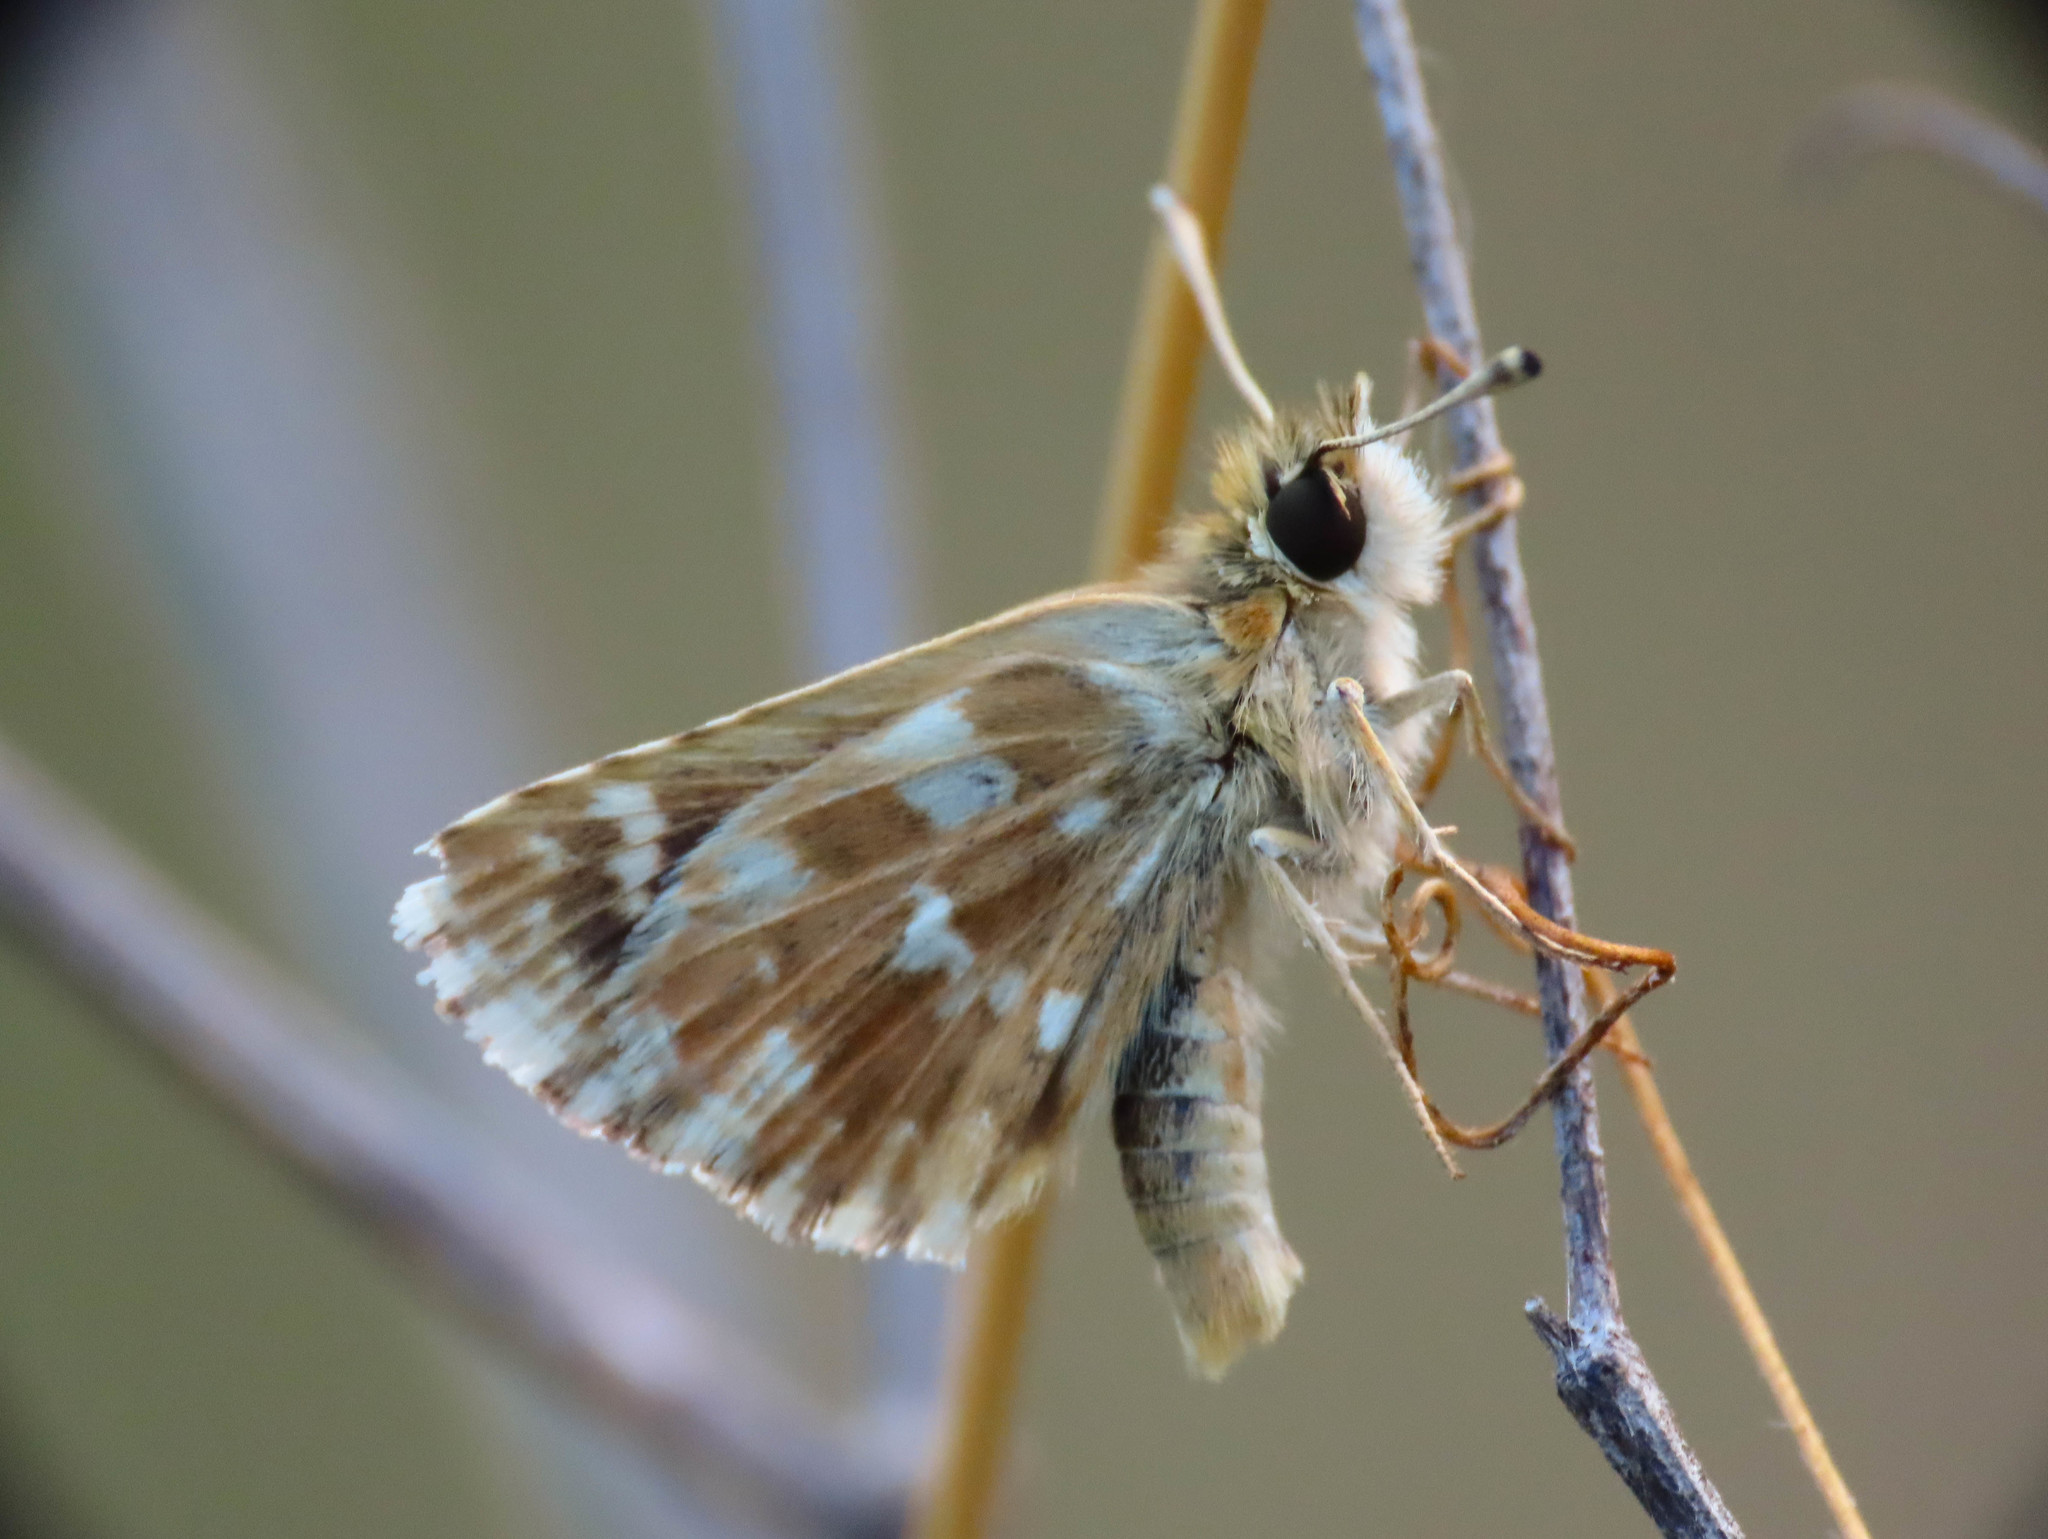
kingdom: Animalia
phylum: Arthropoda
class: Insecta
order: Lepidoptera
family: Hesperiidae
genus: Spialia
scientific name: Spialia sertorius
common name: Red underwing skipper
